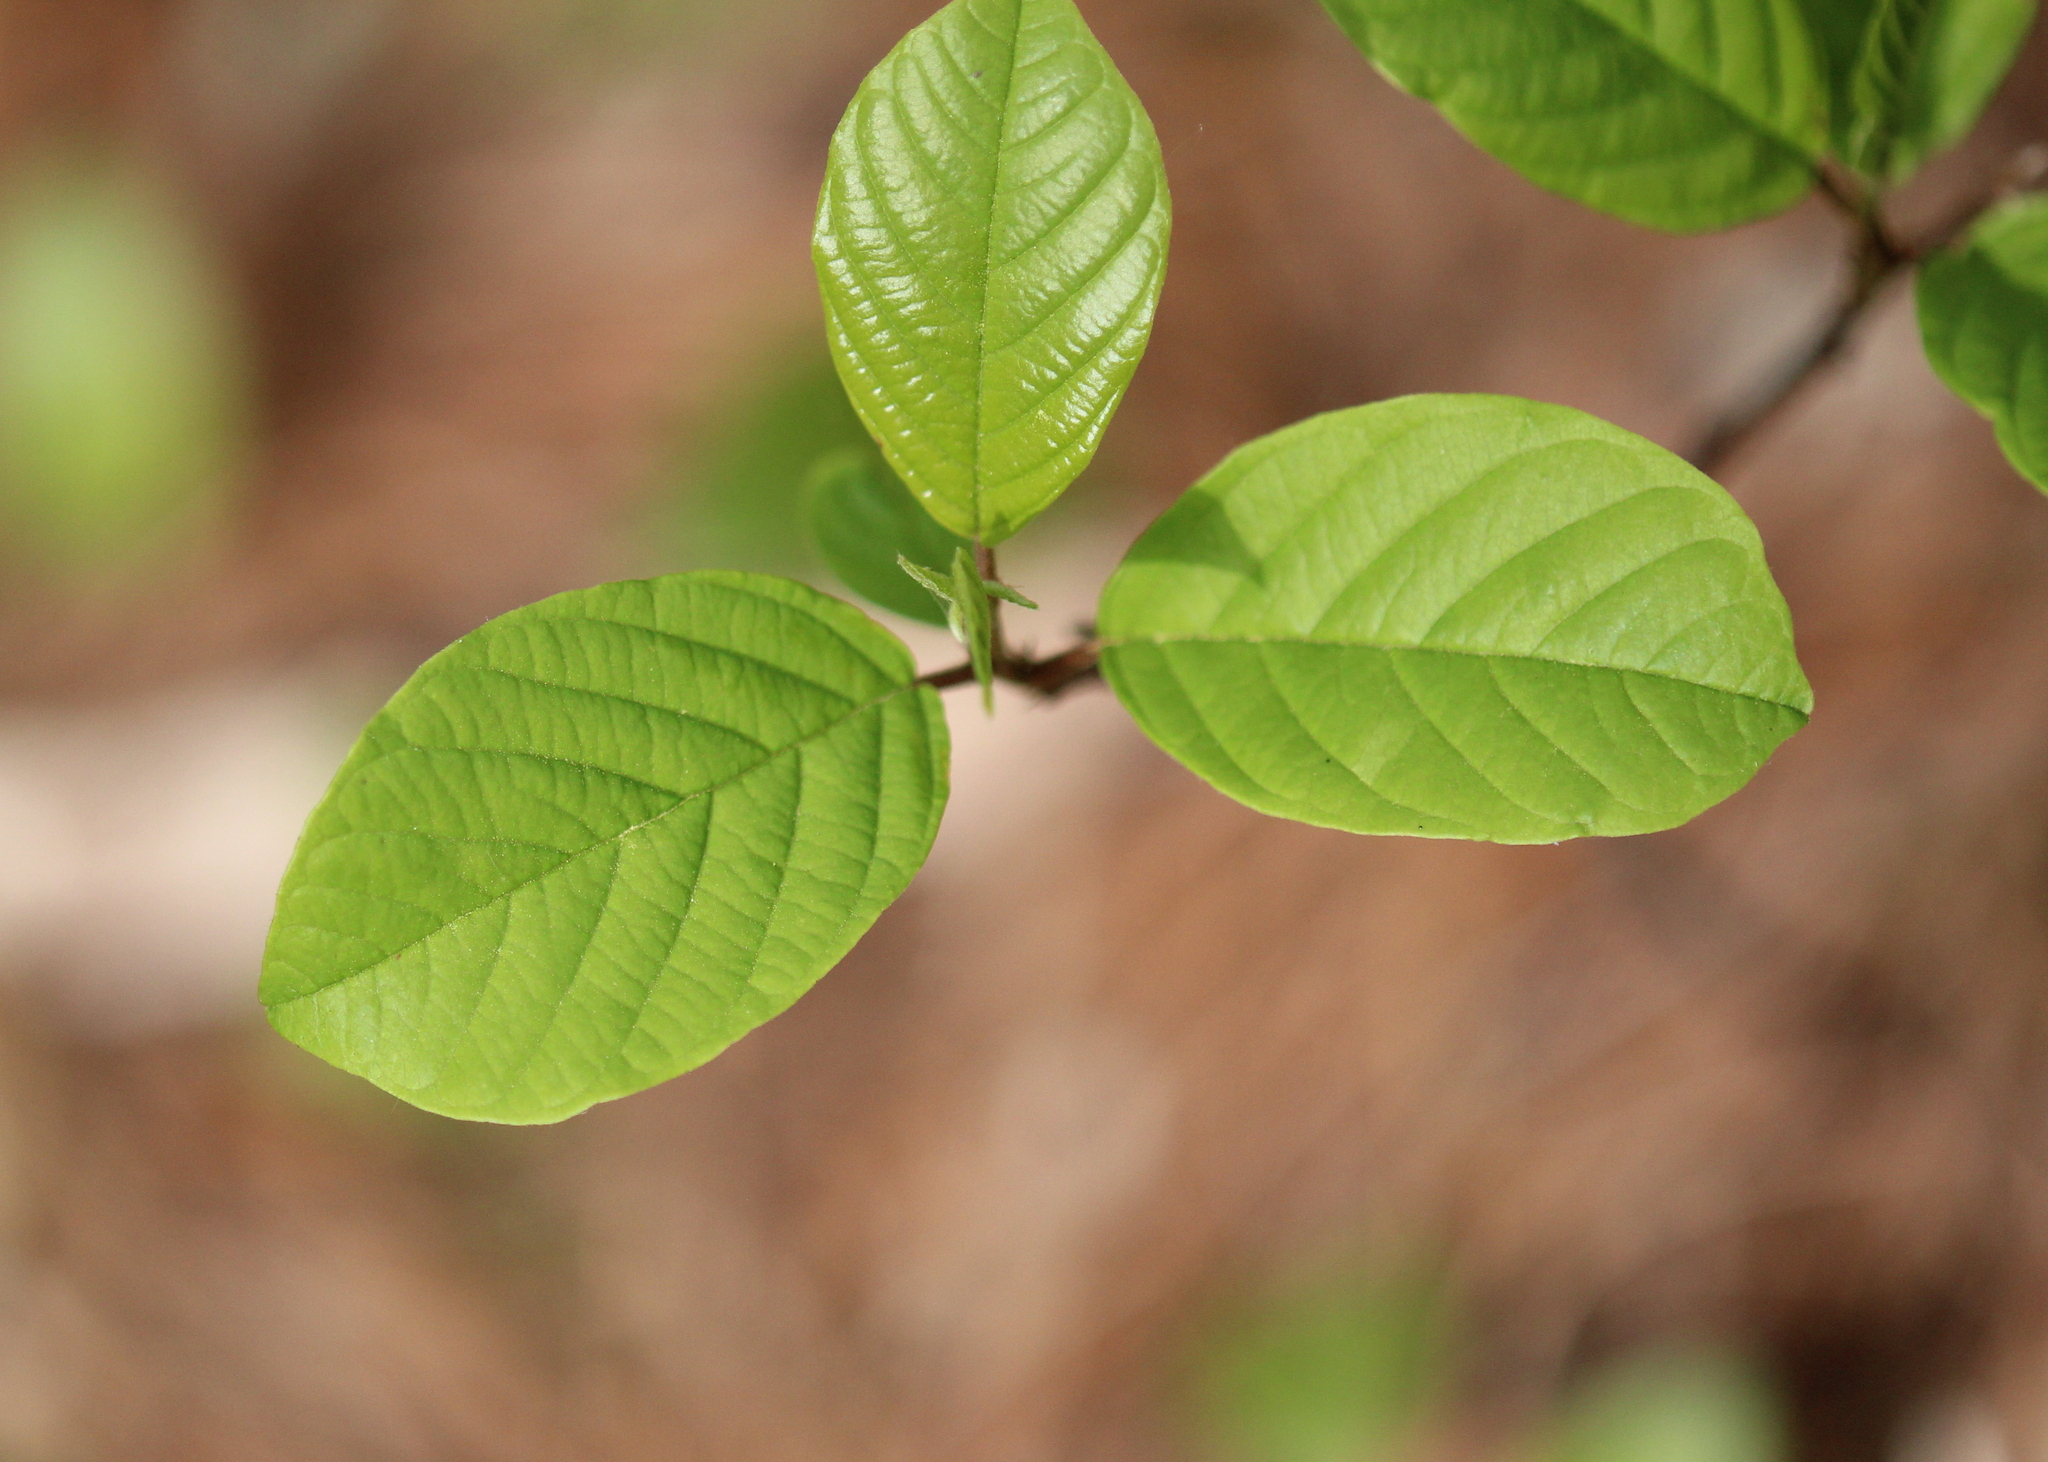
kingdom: Plantae
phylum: Tracheophyta
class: Magnoliopsida
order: Rosales
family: Rhamnaceae
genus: Frangula
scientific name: Frangula alnus
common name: Alder buckthorn
